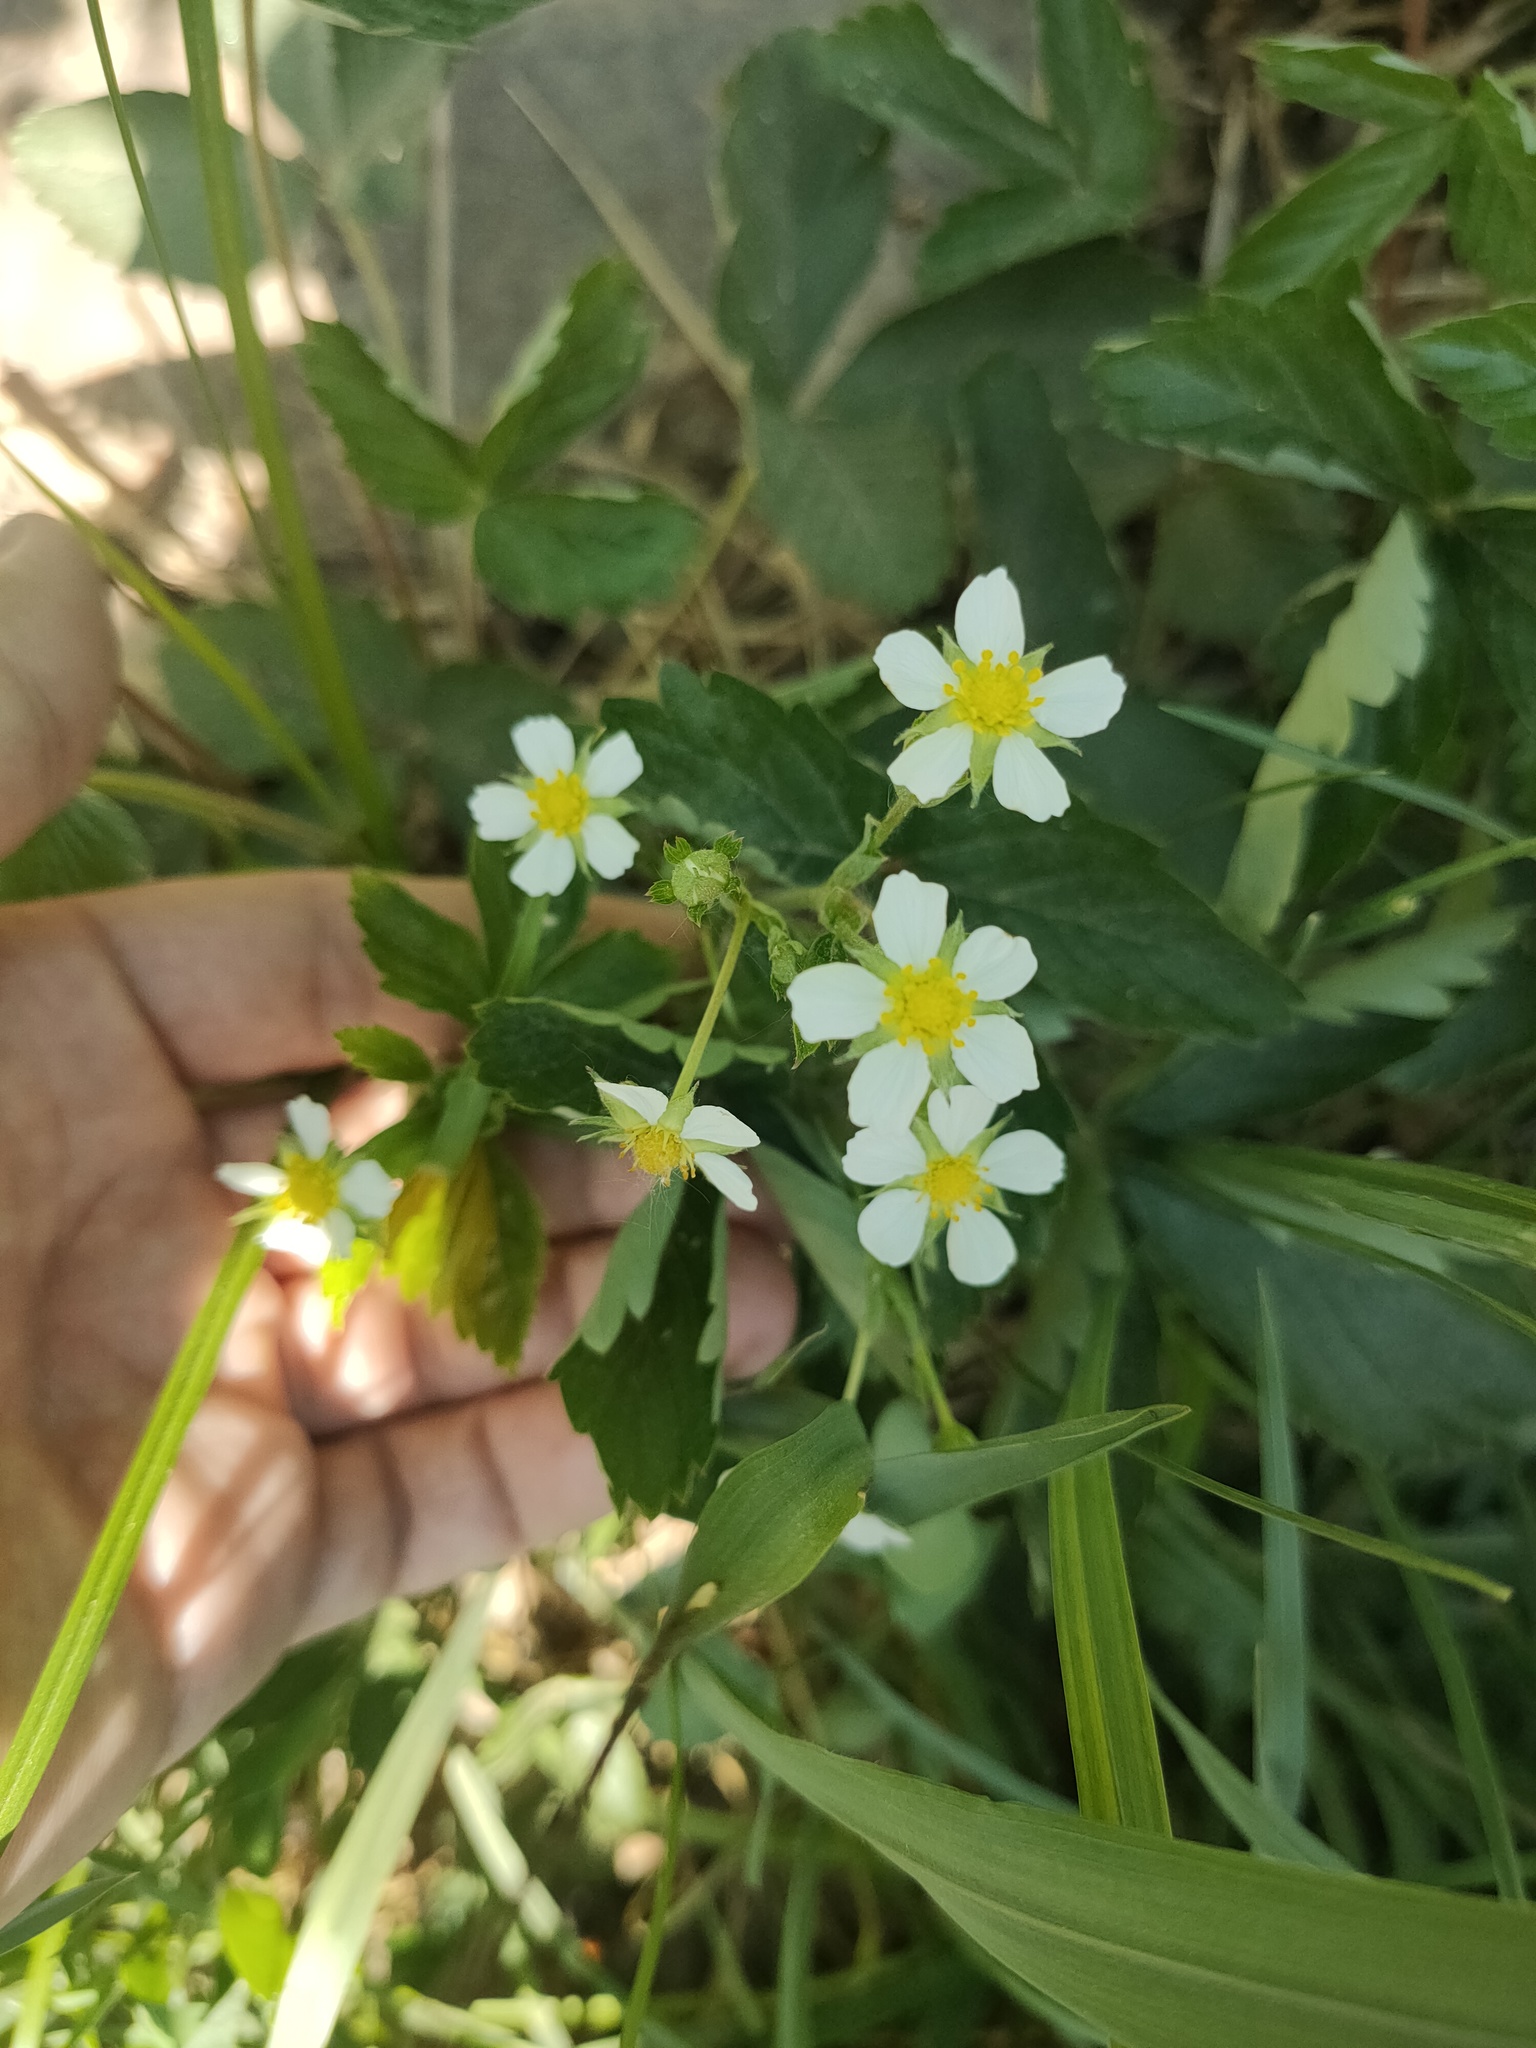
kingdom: Plantae
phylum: Tracheophyta
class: Magnoliopsida
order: Rosales
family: Rosaceae
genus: Fragaria
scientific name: Fragaria vesca
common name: Wild strawberry
